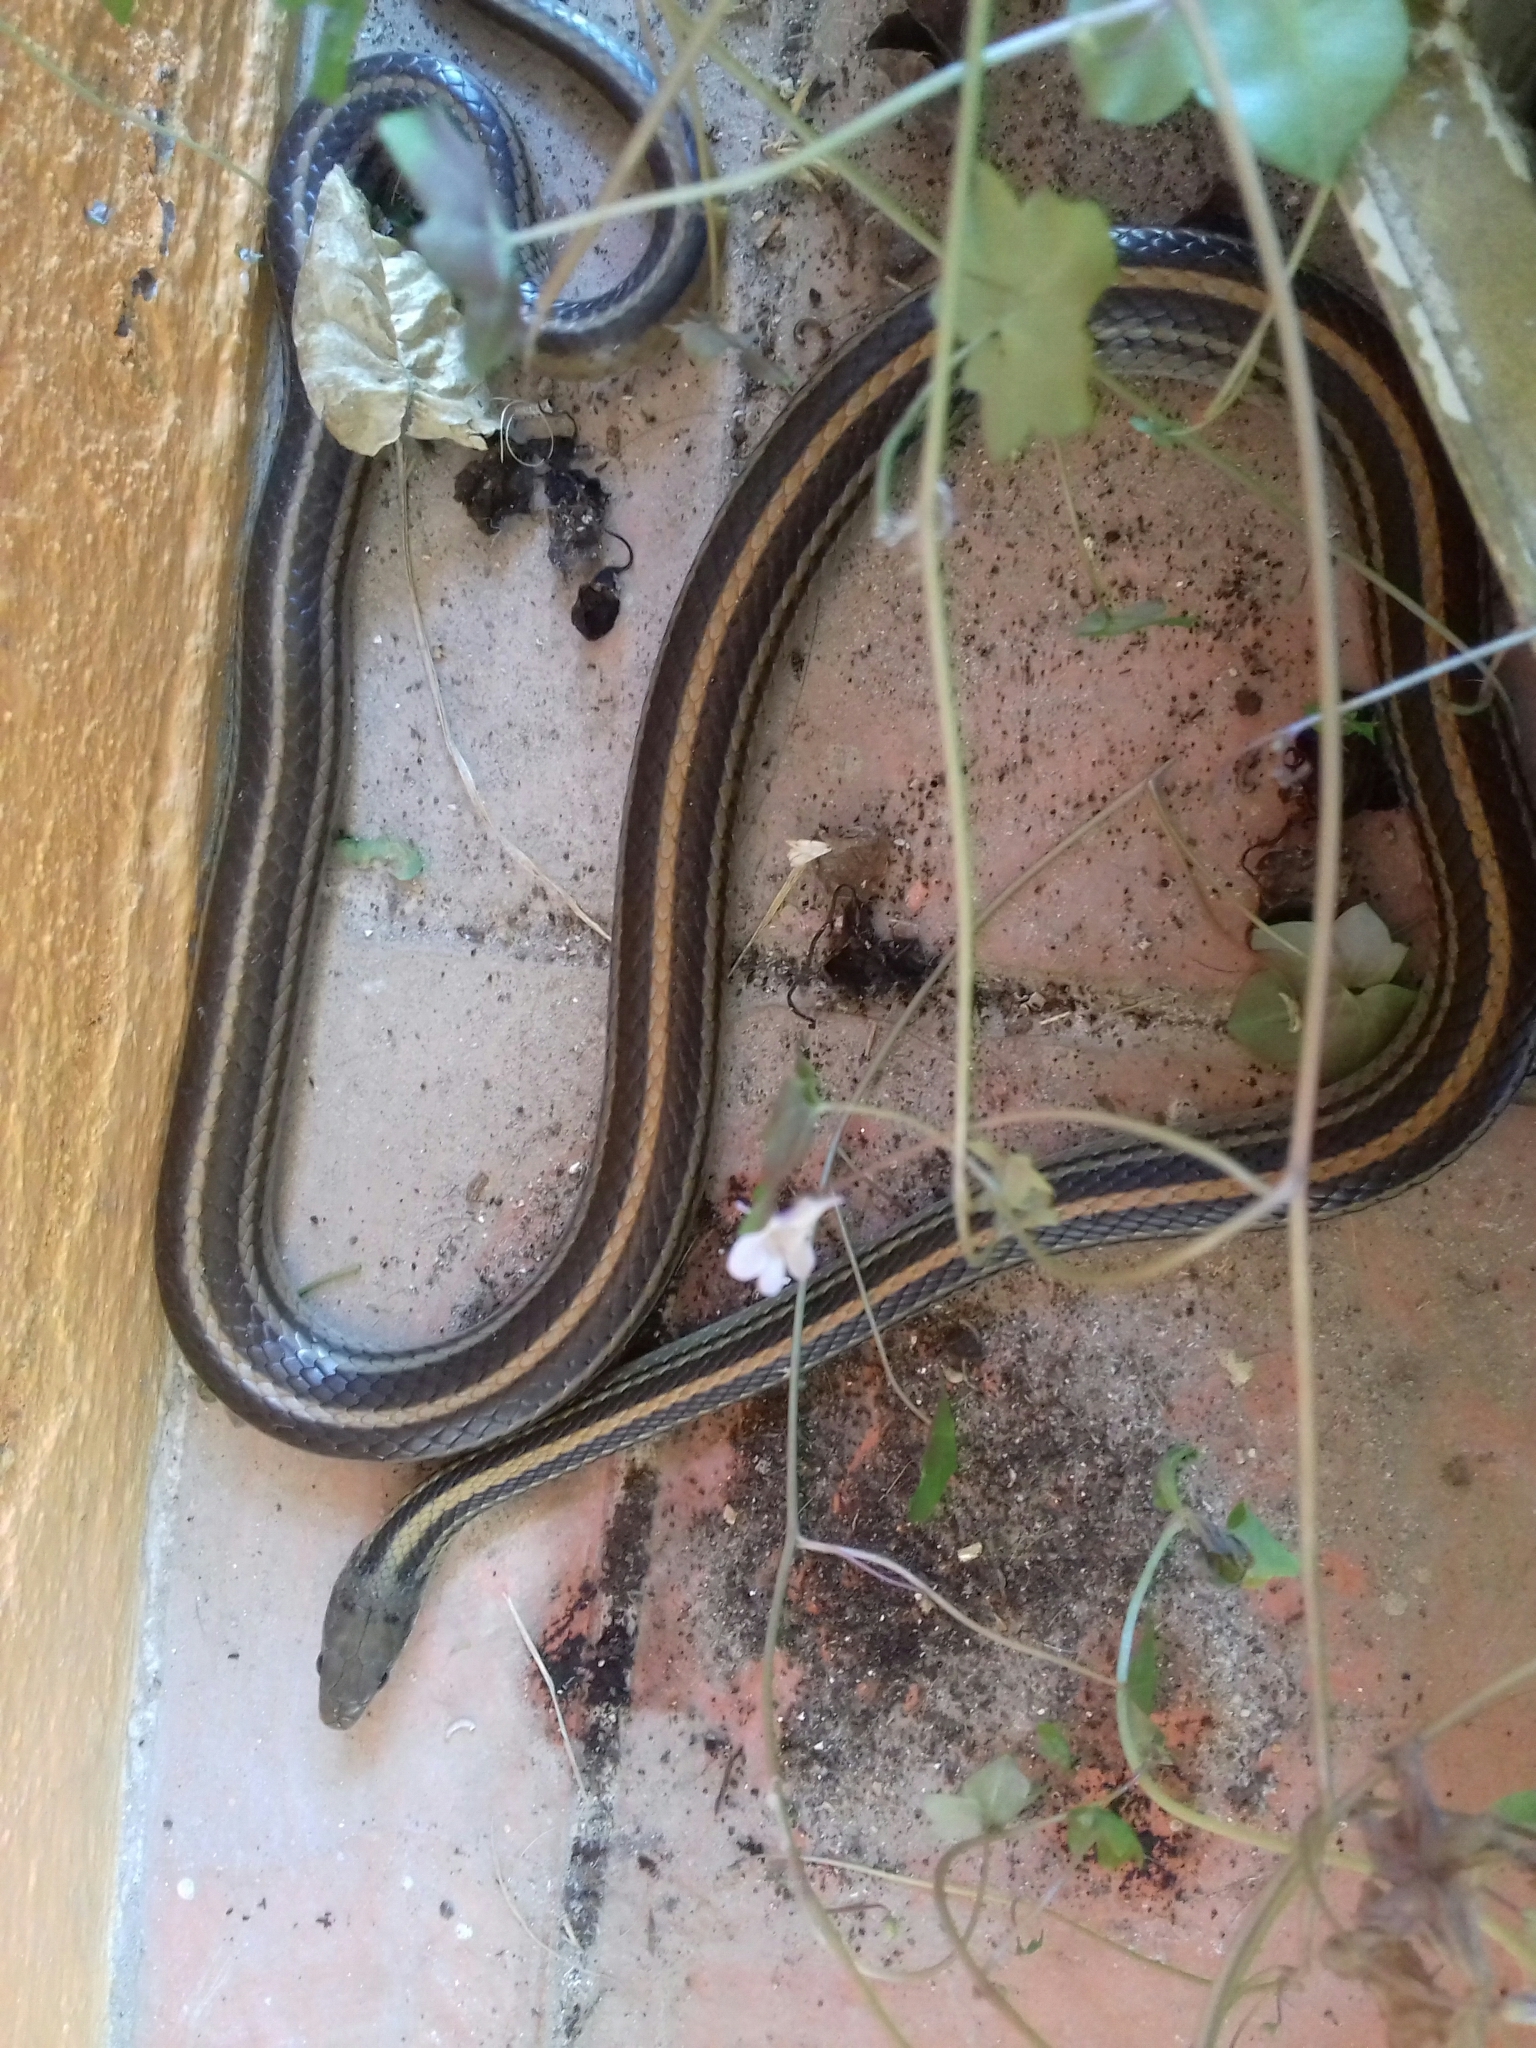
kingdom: Animalia
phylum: Chordata
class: Squamata
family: Colubridae
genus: Salvadora
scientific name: Salvadora bairdi
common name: Baird's patchnose snake
